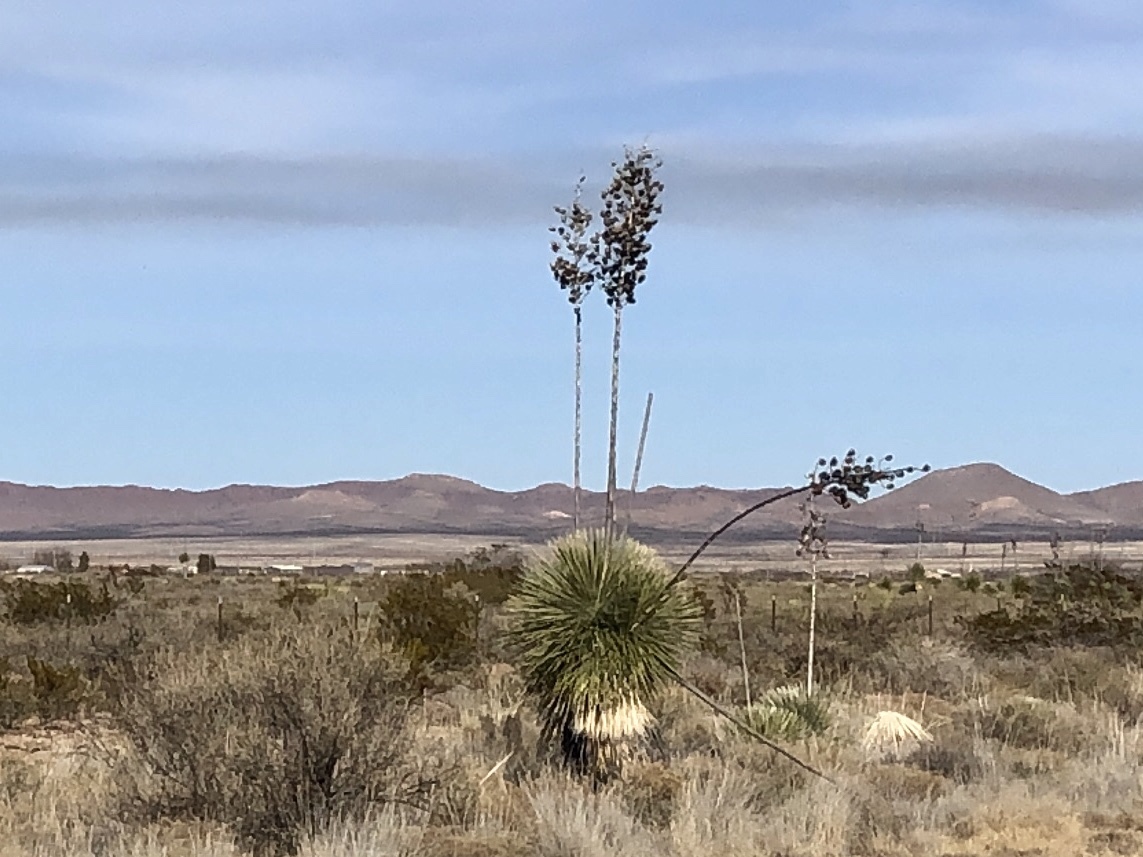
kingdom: Plantae
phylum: Tracheophyta
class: Liliopsida
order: Asparagales
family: Asparagaceae
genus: Yucca
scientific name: Yucca elata
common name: Palmella
